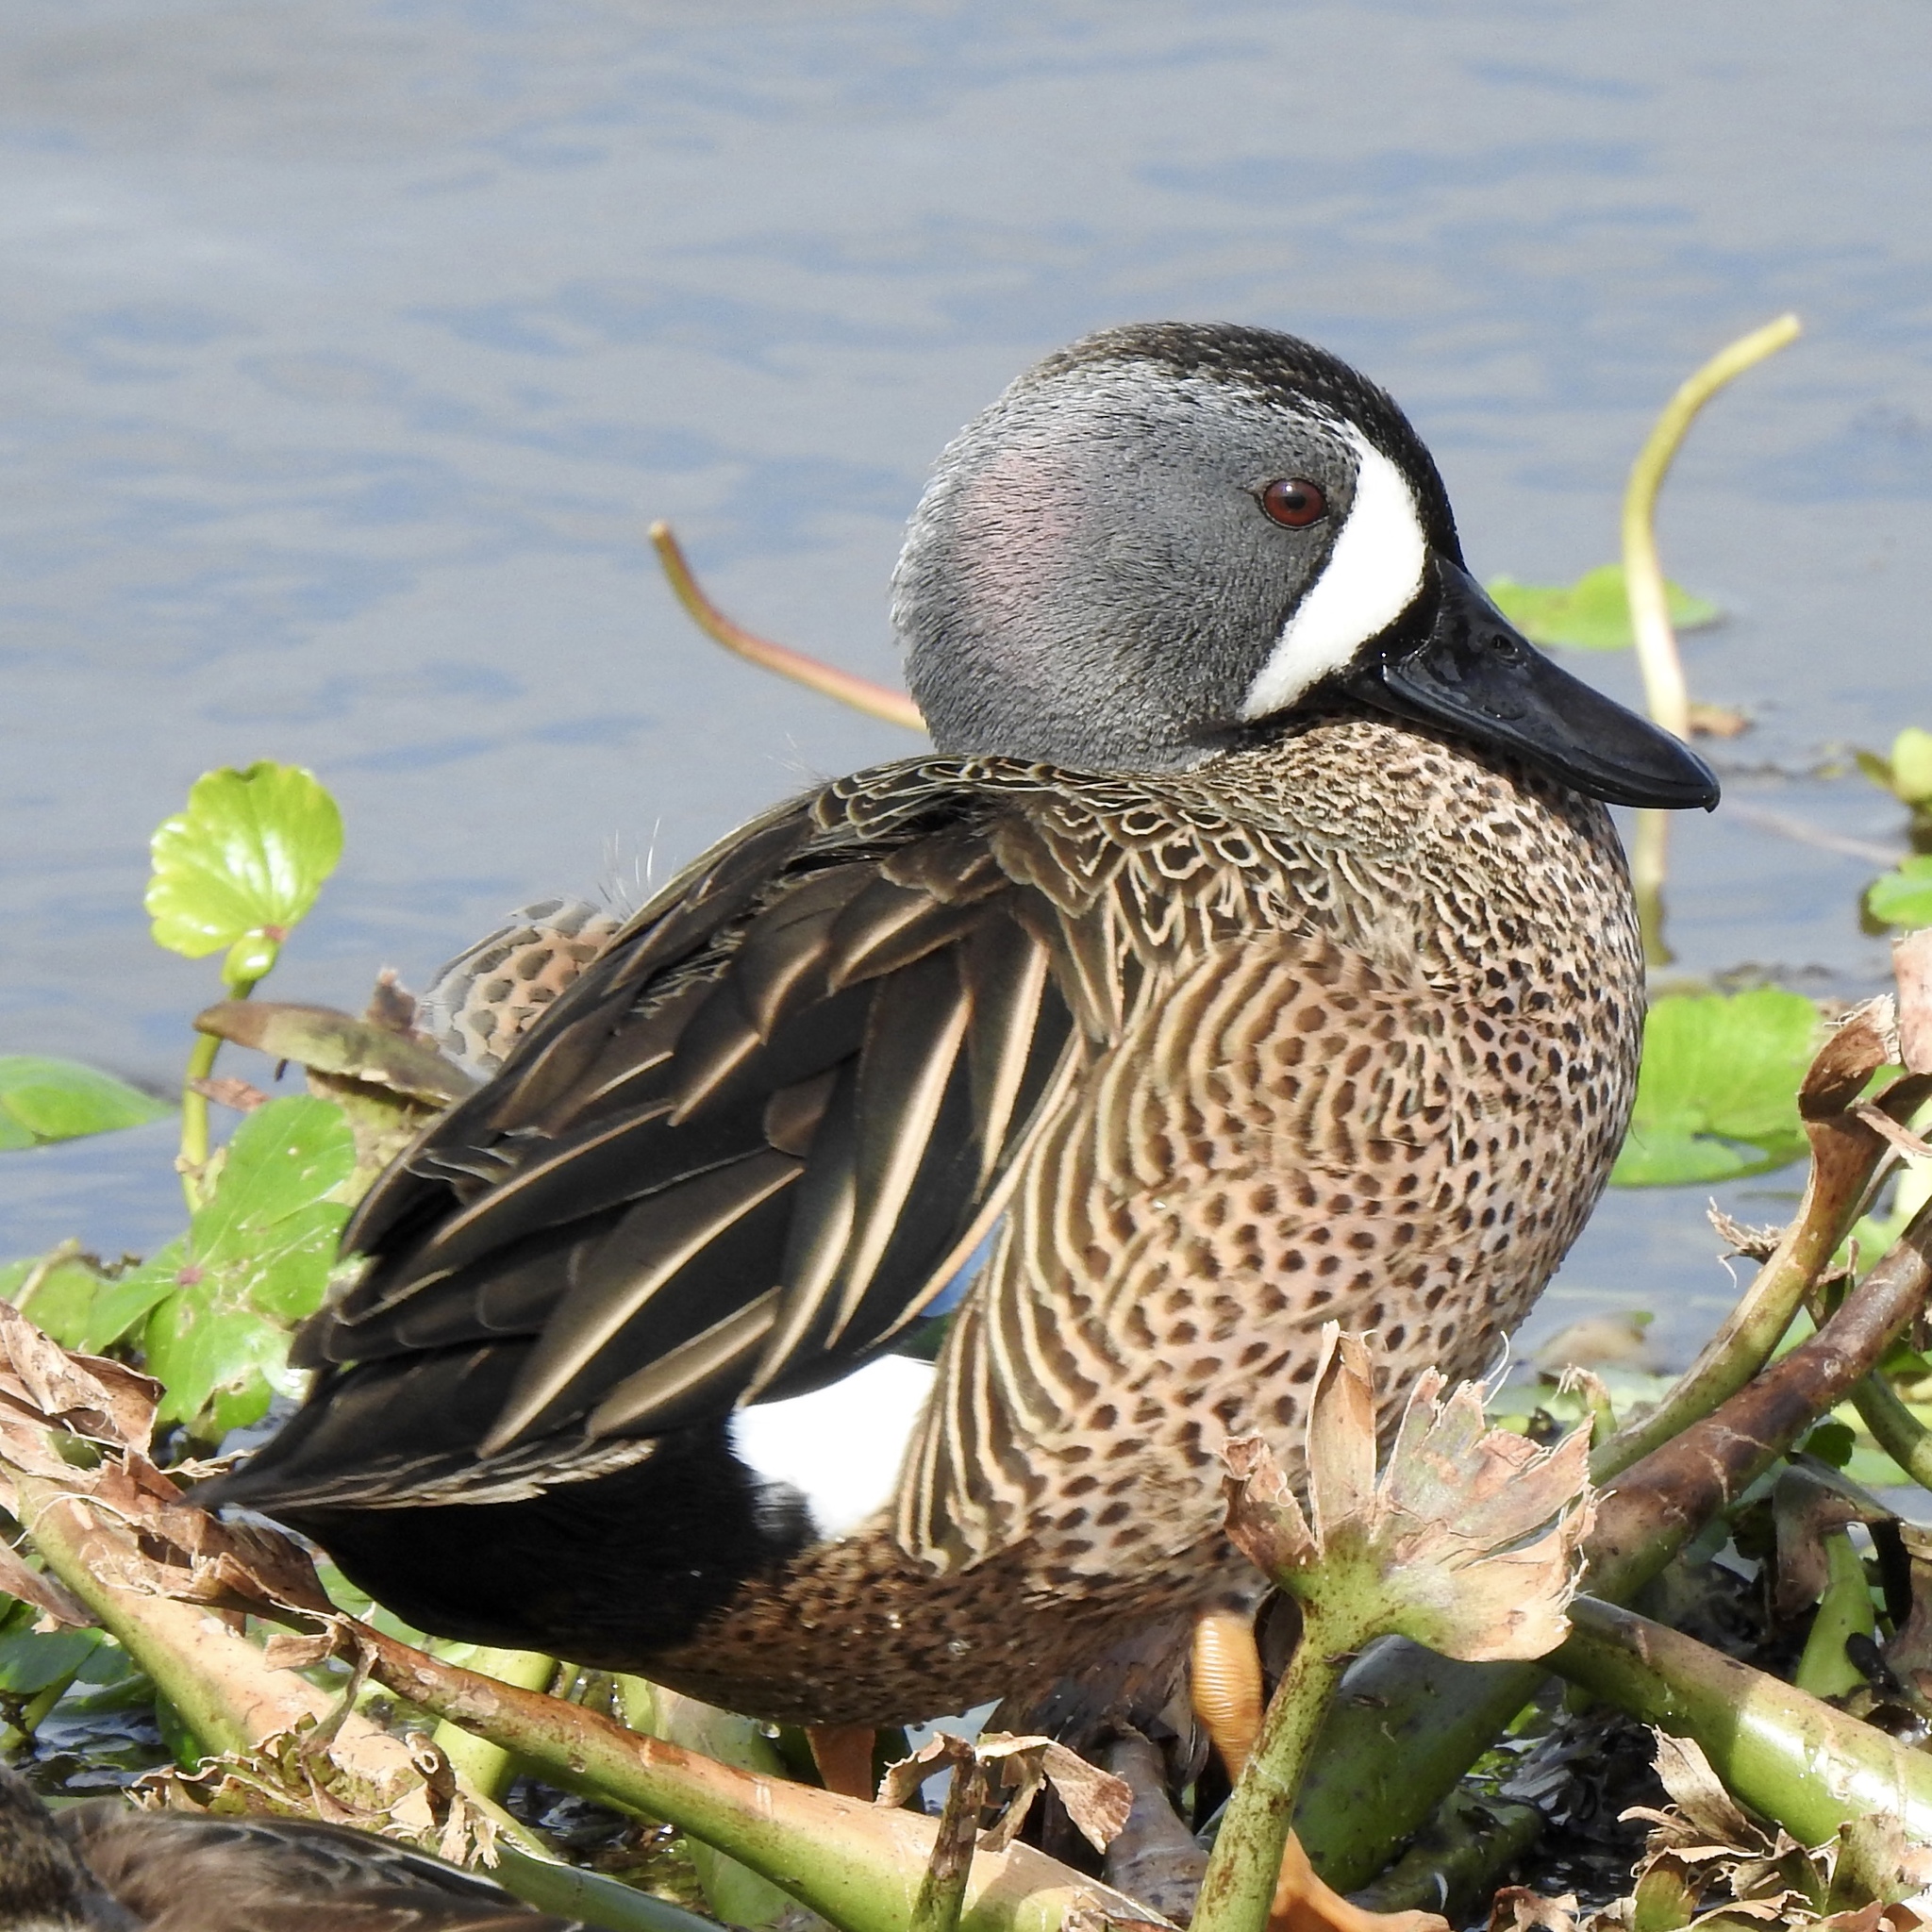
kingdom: Animalia
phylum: Chordata
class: Aves
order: Anseriformes
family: Anatidae
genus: Spatula
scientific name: Spatula discors
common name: Blue-winged teal
